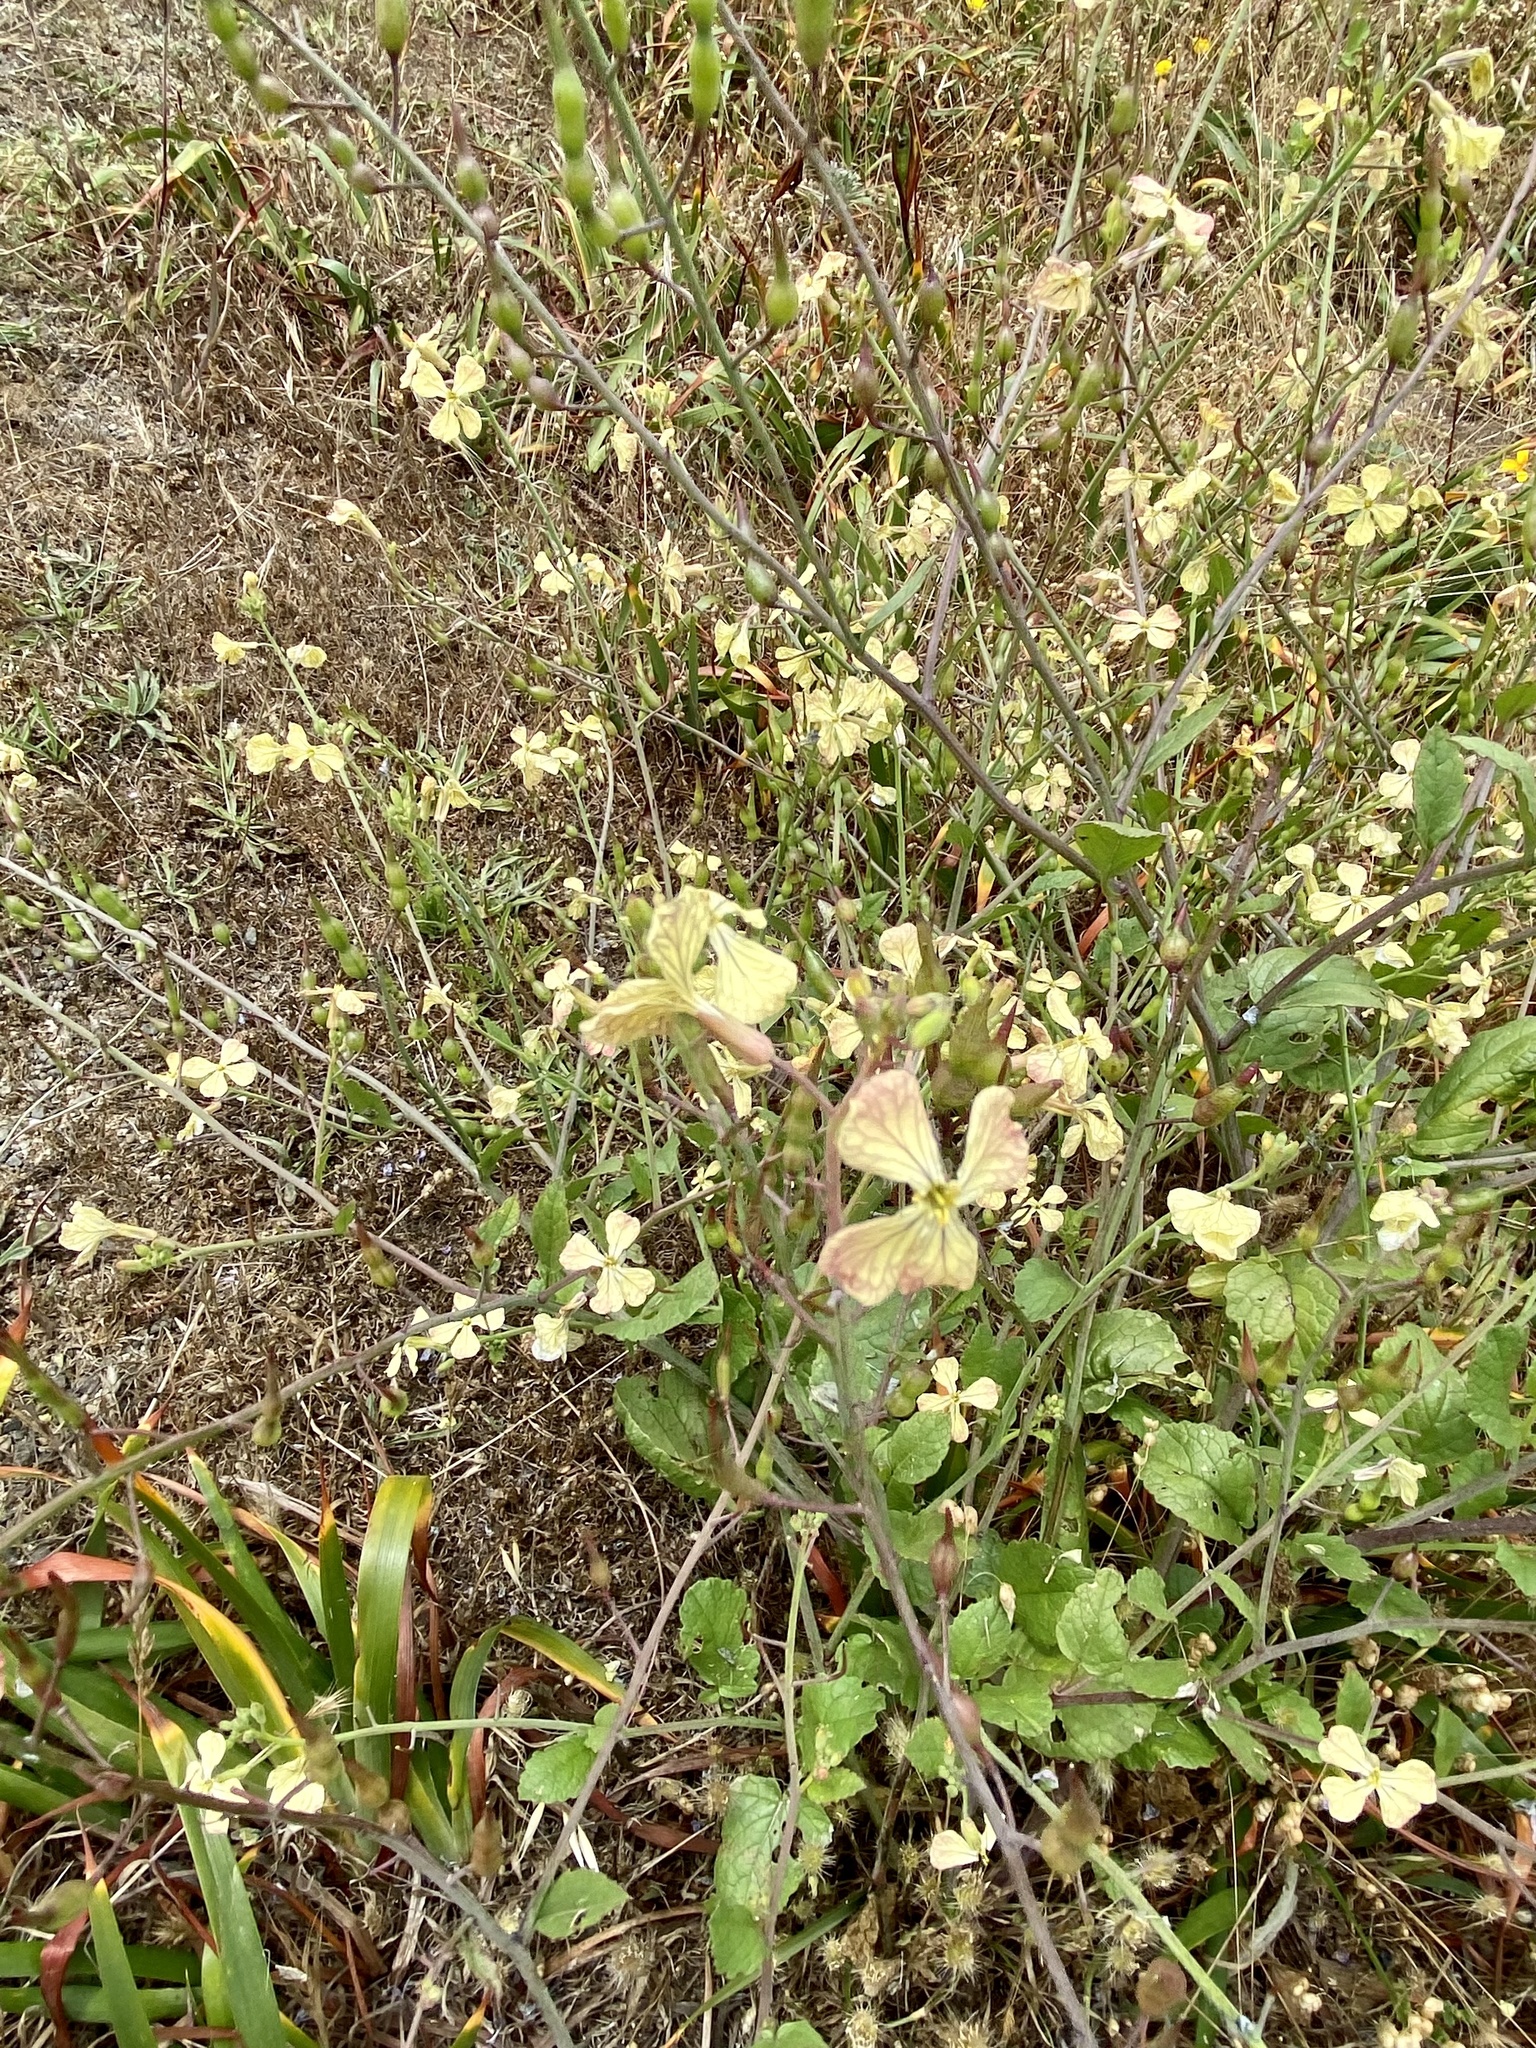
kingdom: Plantae
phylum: Tracheophyta
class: Magnoliopsida
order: Brassicales
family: Brassicaceae
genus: Raphanus
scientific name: Raphanus raphanistrum
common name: Wild radish
